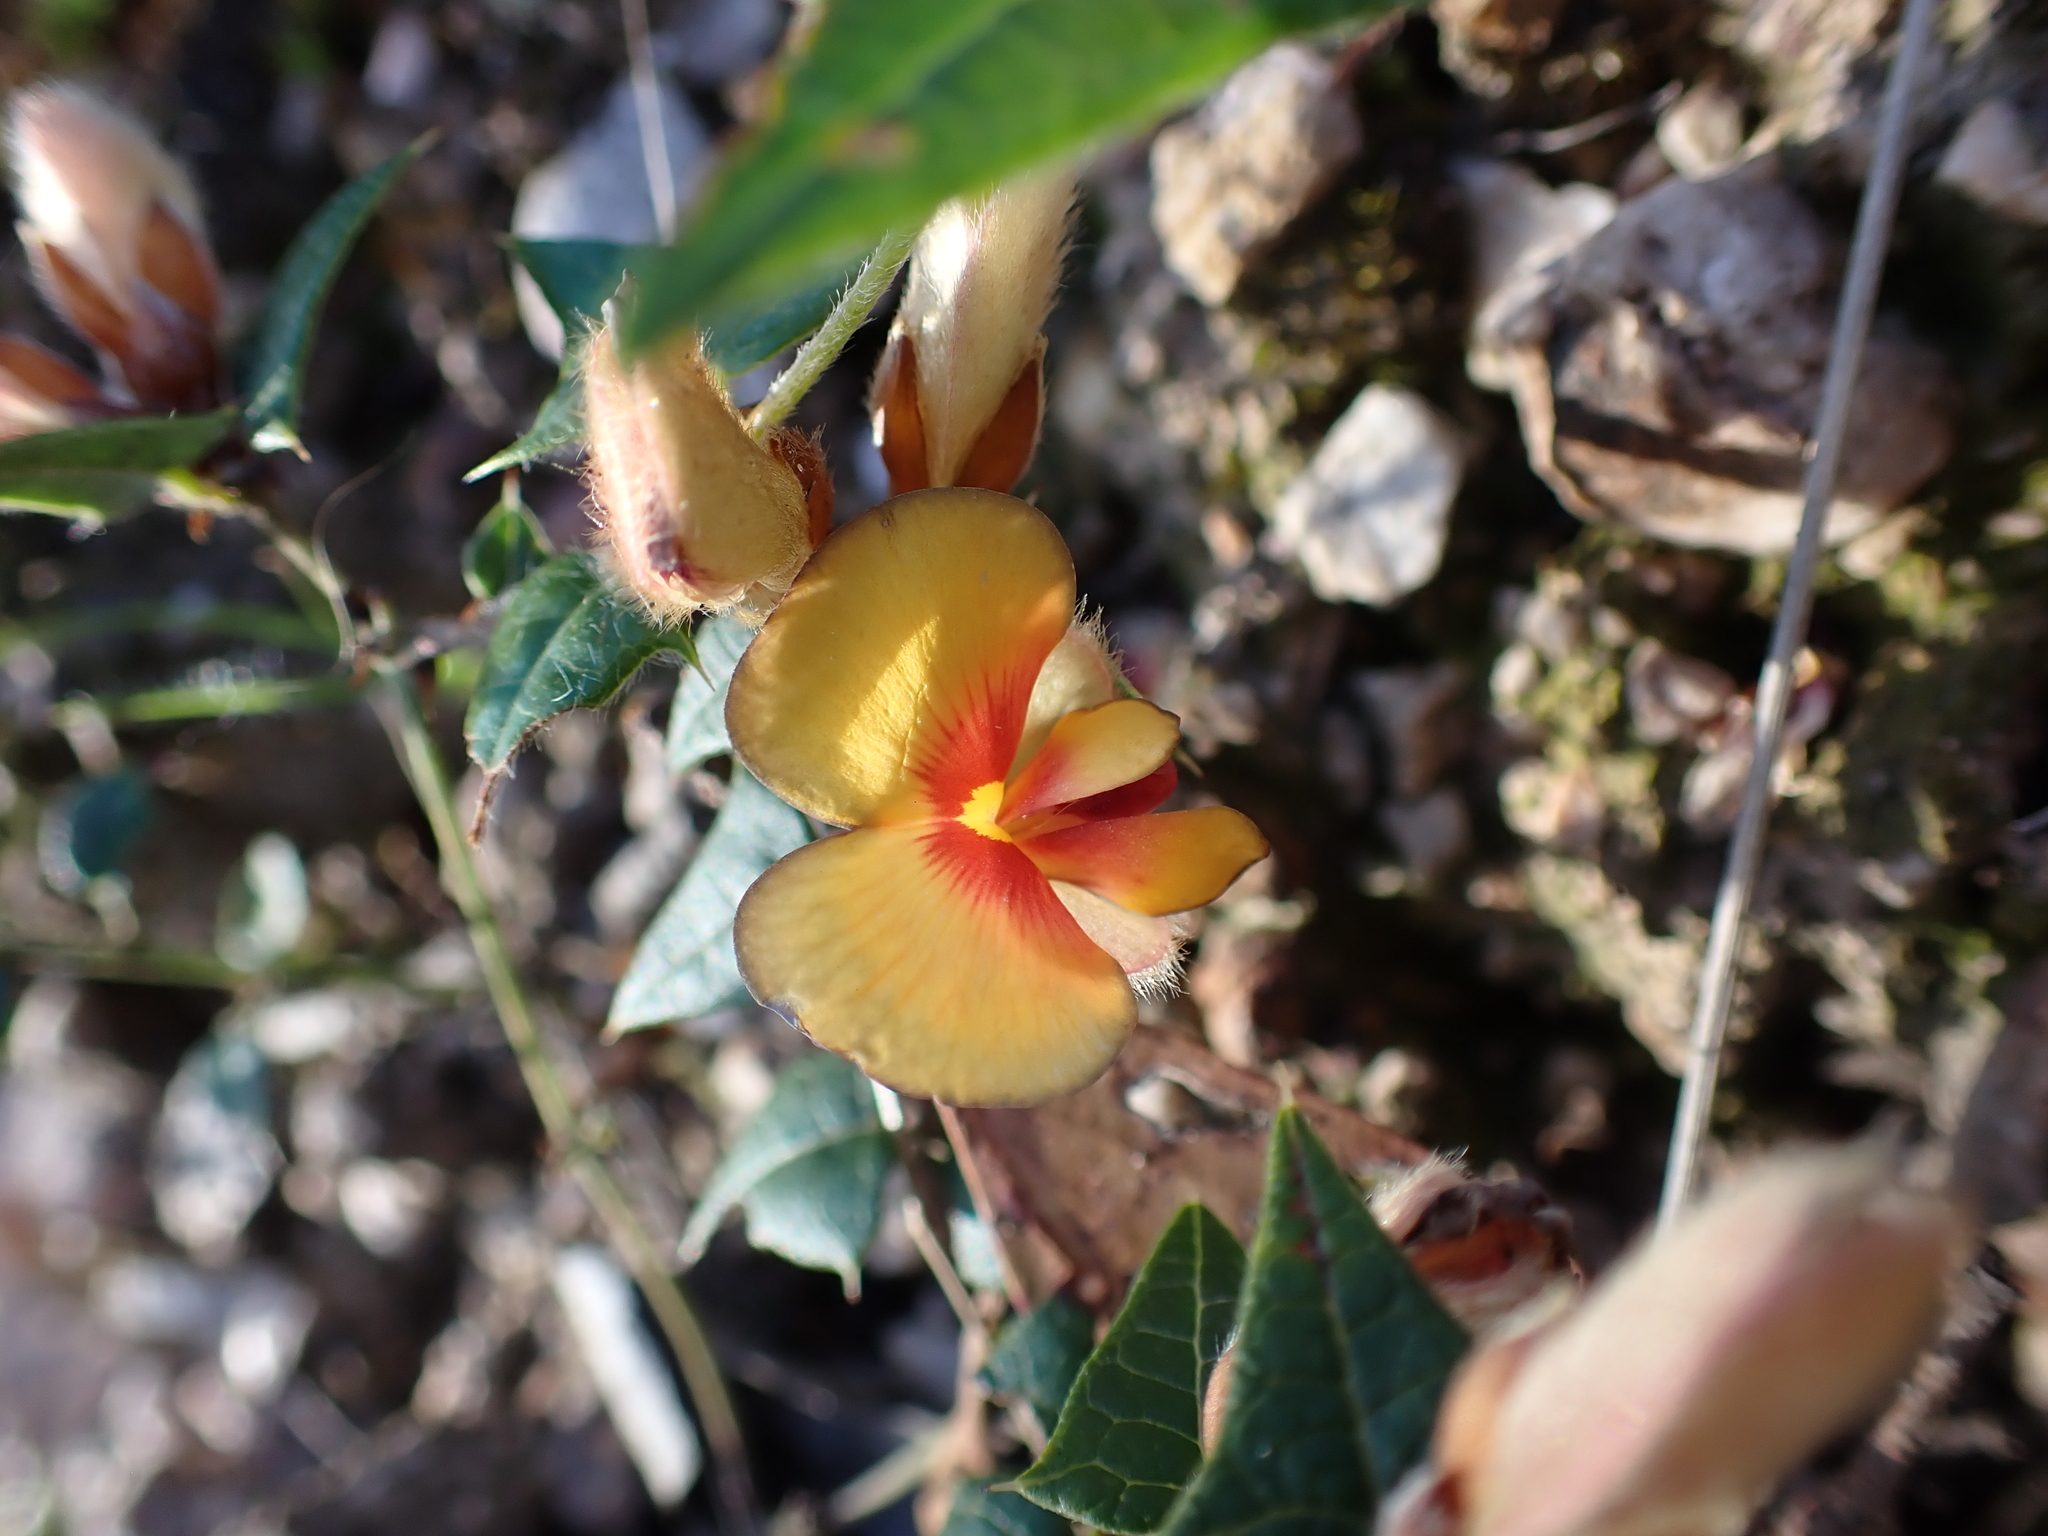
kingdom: Plantae
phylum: Tracheophyta
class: Magnoliopsida
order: Fabales
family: Fabaceae
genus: Platylobium
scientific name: Platylobium obtusangulum
